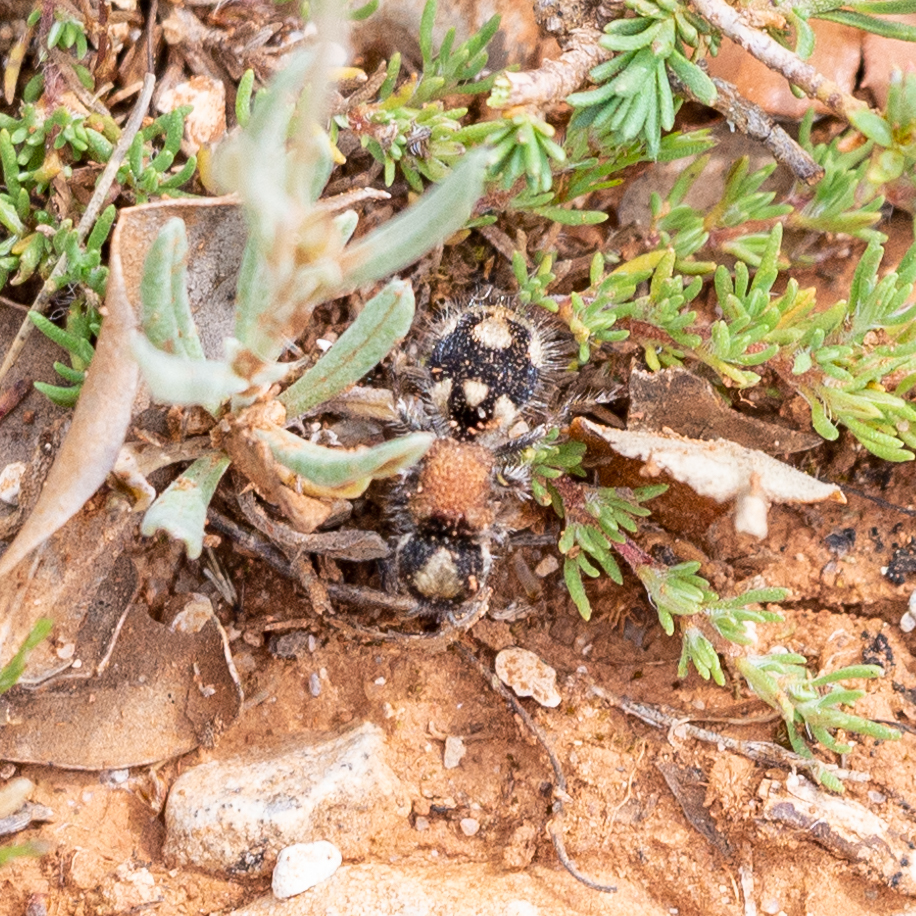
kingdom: Animalia
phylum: Arthropoda
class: Insecta
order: Hymenoptera
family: Mutillidae
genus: Ronisia
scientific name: Ronisia barbarula
